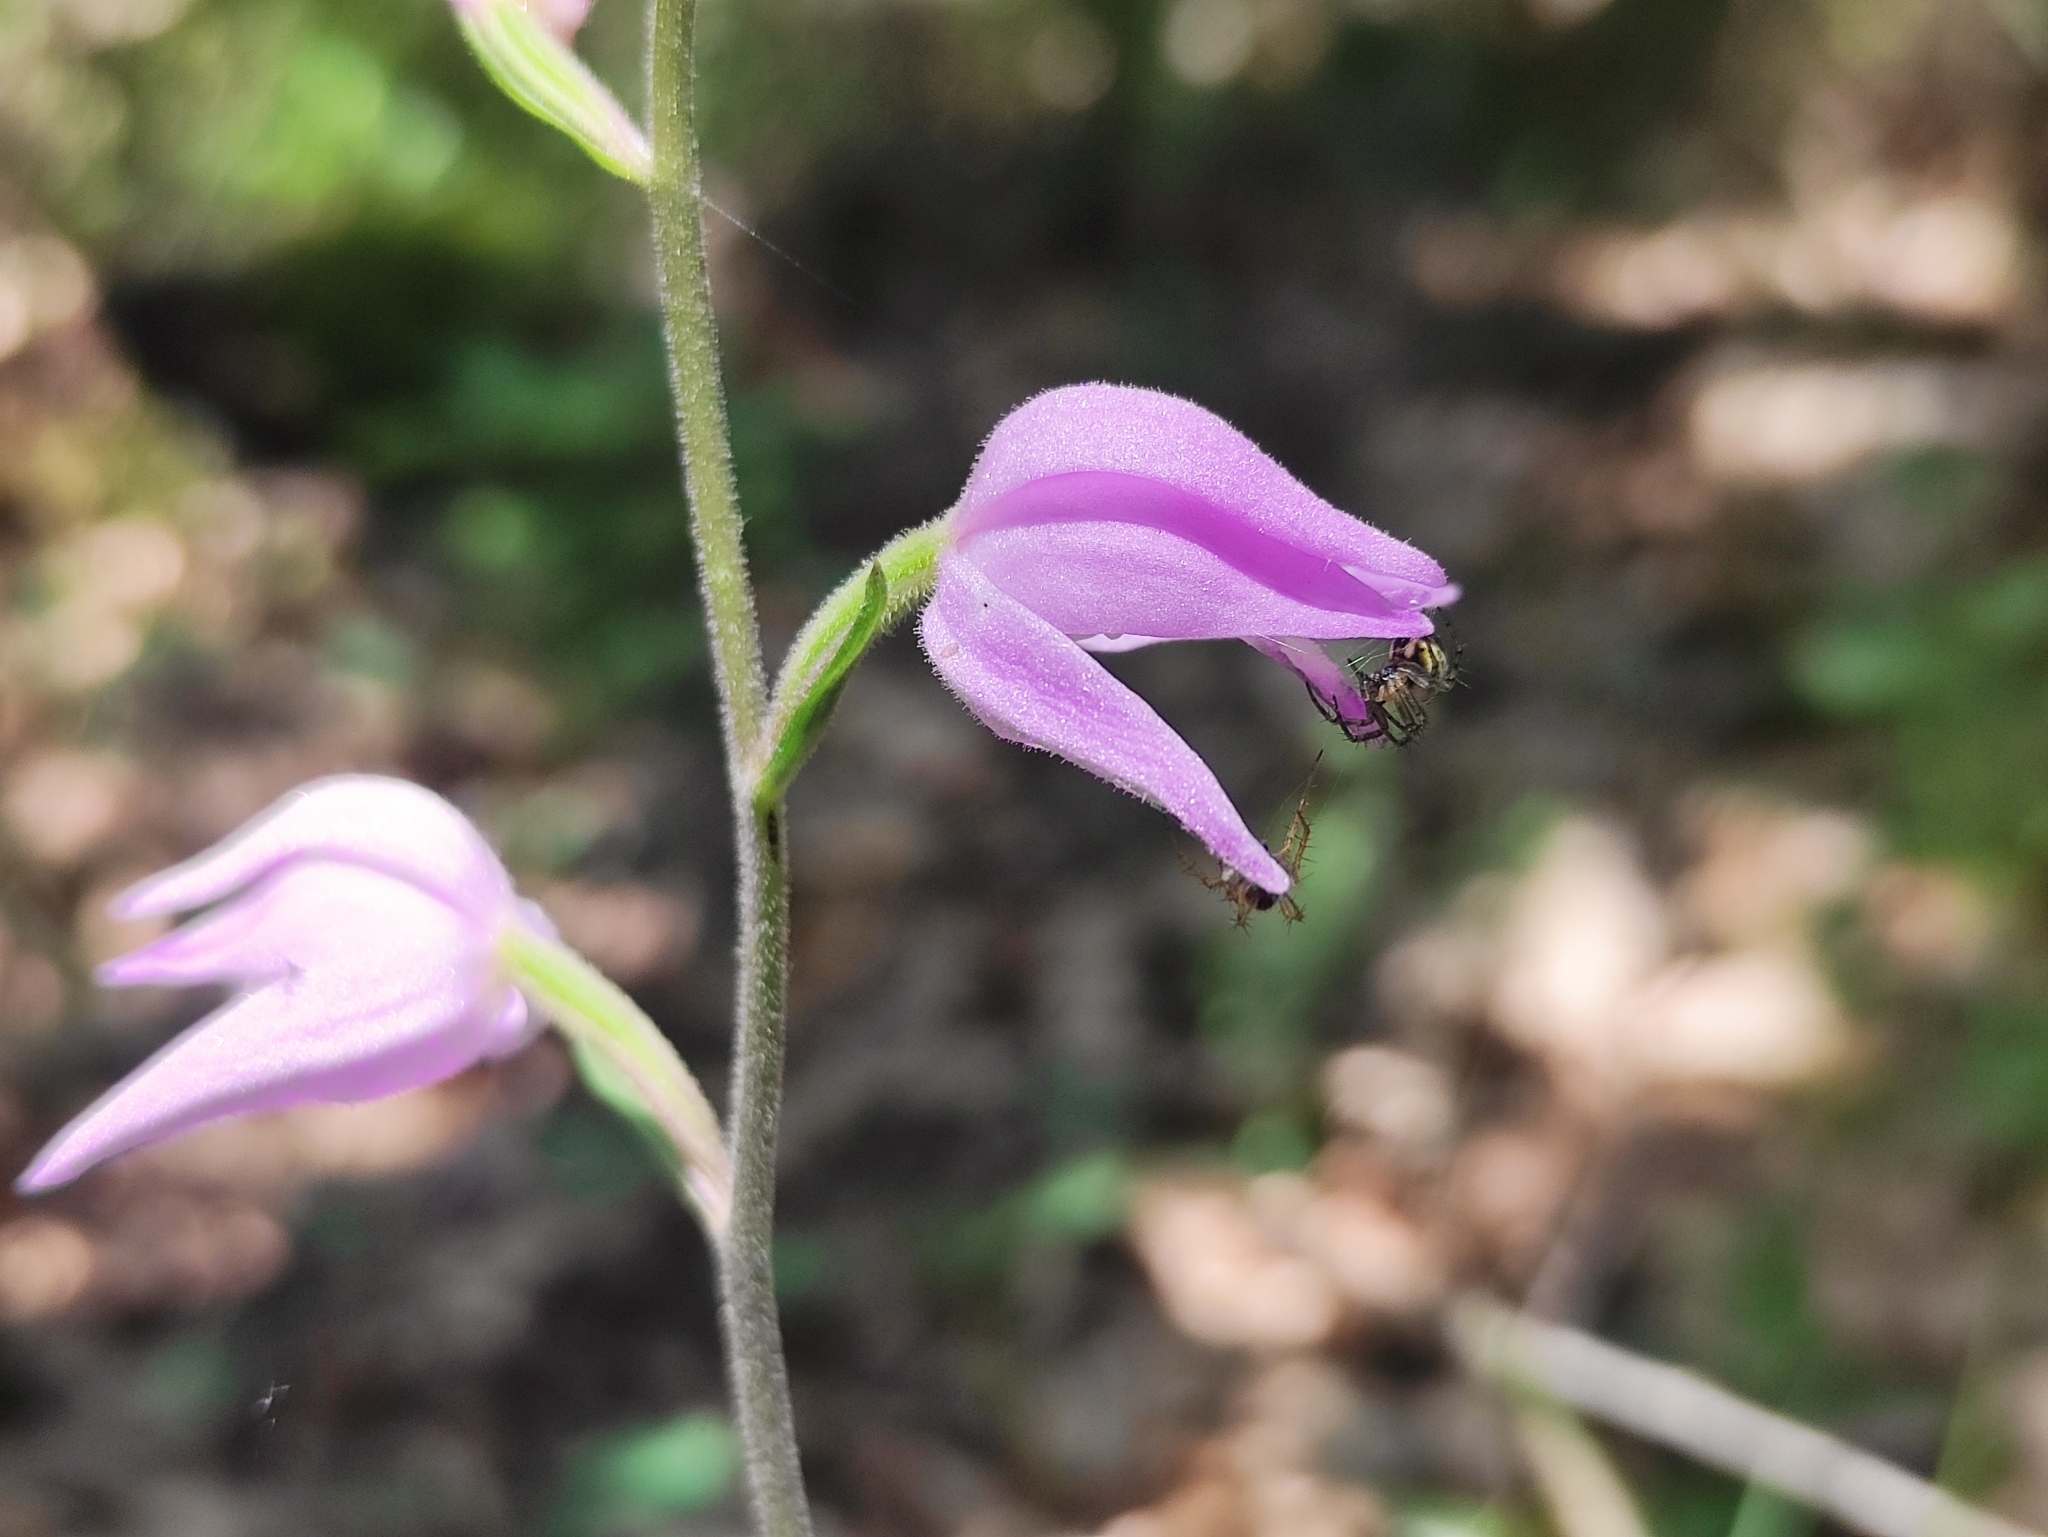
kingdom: Plantae
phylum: Tracheophyta
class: Liliopsida
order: Asparagales
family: Orchidaceae
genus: Cephalanthera
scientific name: Cephalanthera rubra
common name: Red helleborine
